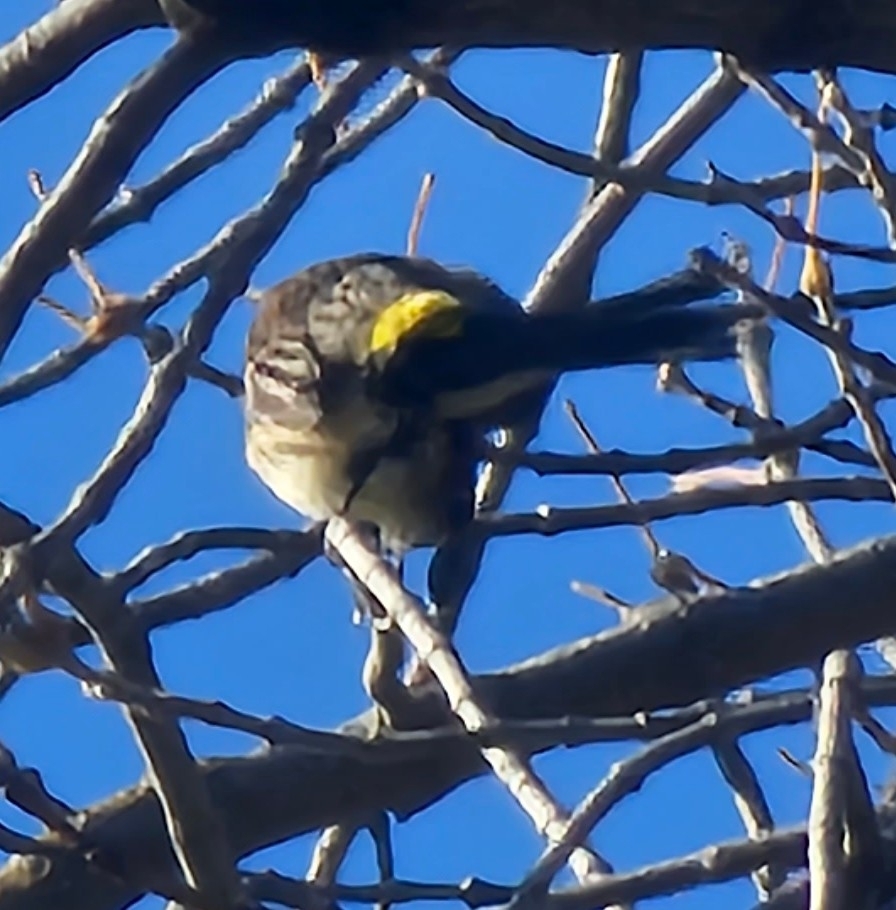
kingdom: Animalia
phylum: Chordata
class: Aves
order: Passeriformes
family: Parulidae
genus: Setophaga
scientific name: Setophaga coronata
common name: Myrtle warbler
